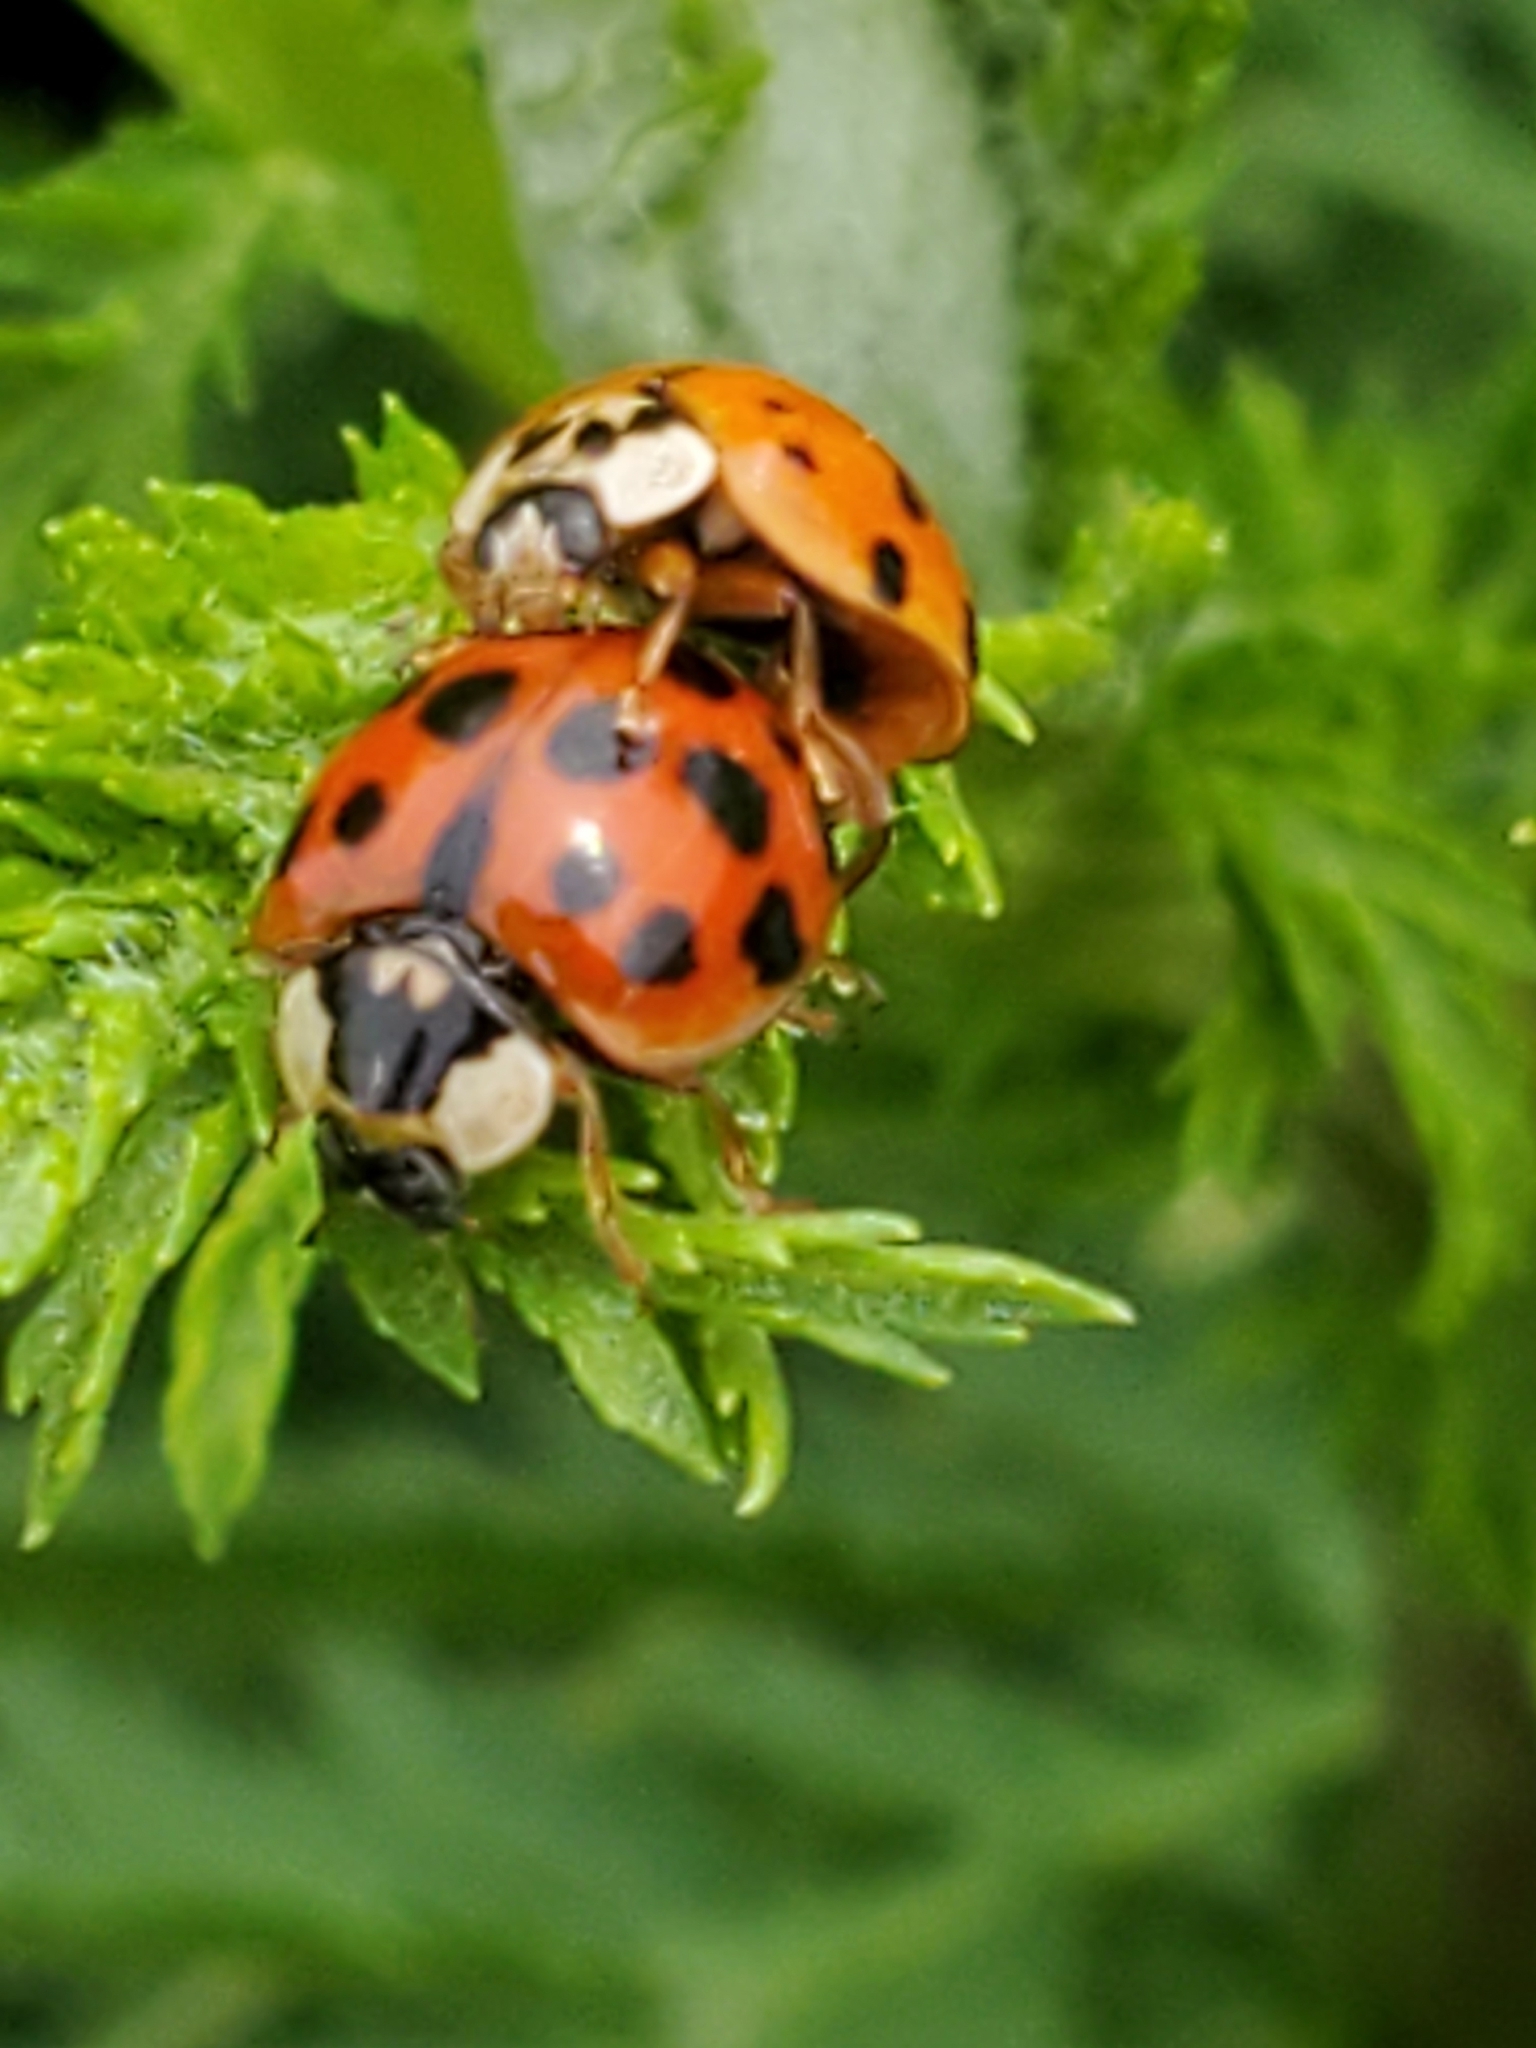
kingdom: Animalia
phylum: Arthropoda
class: Insecta
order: Coleoptera
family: Coccinellidae
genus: Harmonia
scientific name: Harmonia axyridis
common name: Harlequin ladybird
